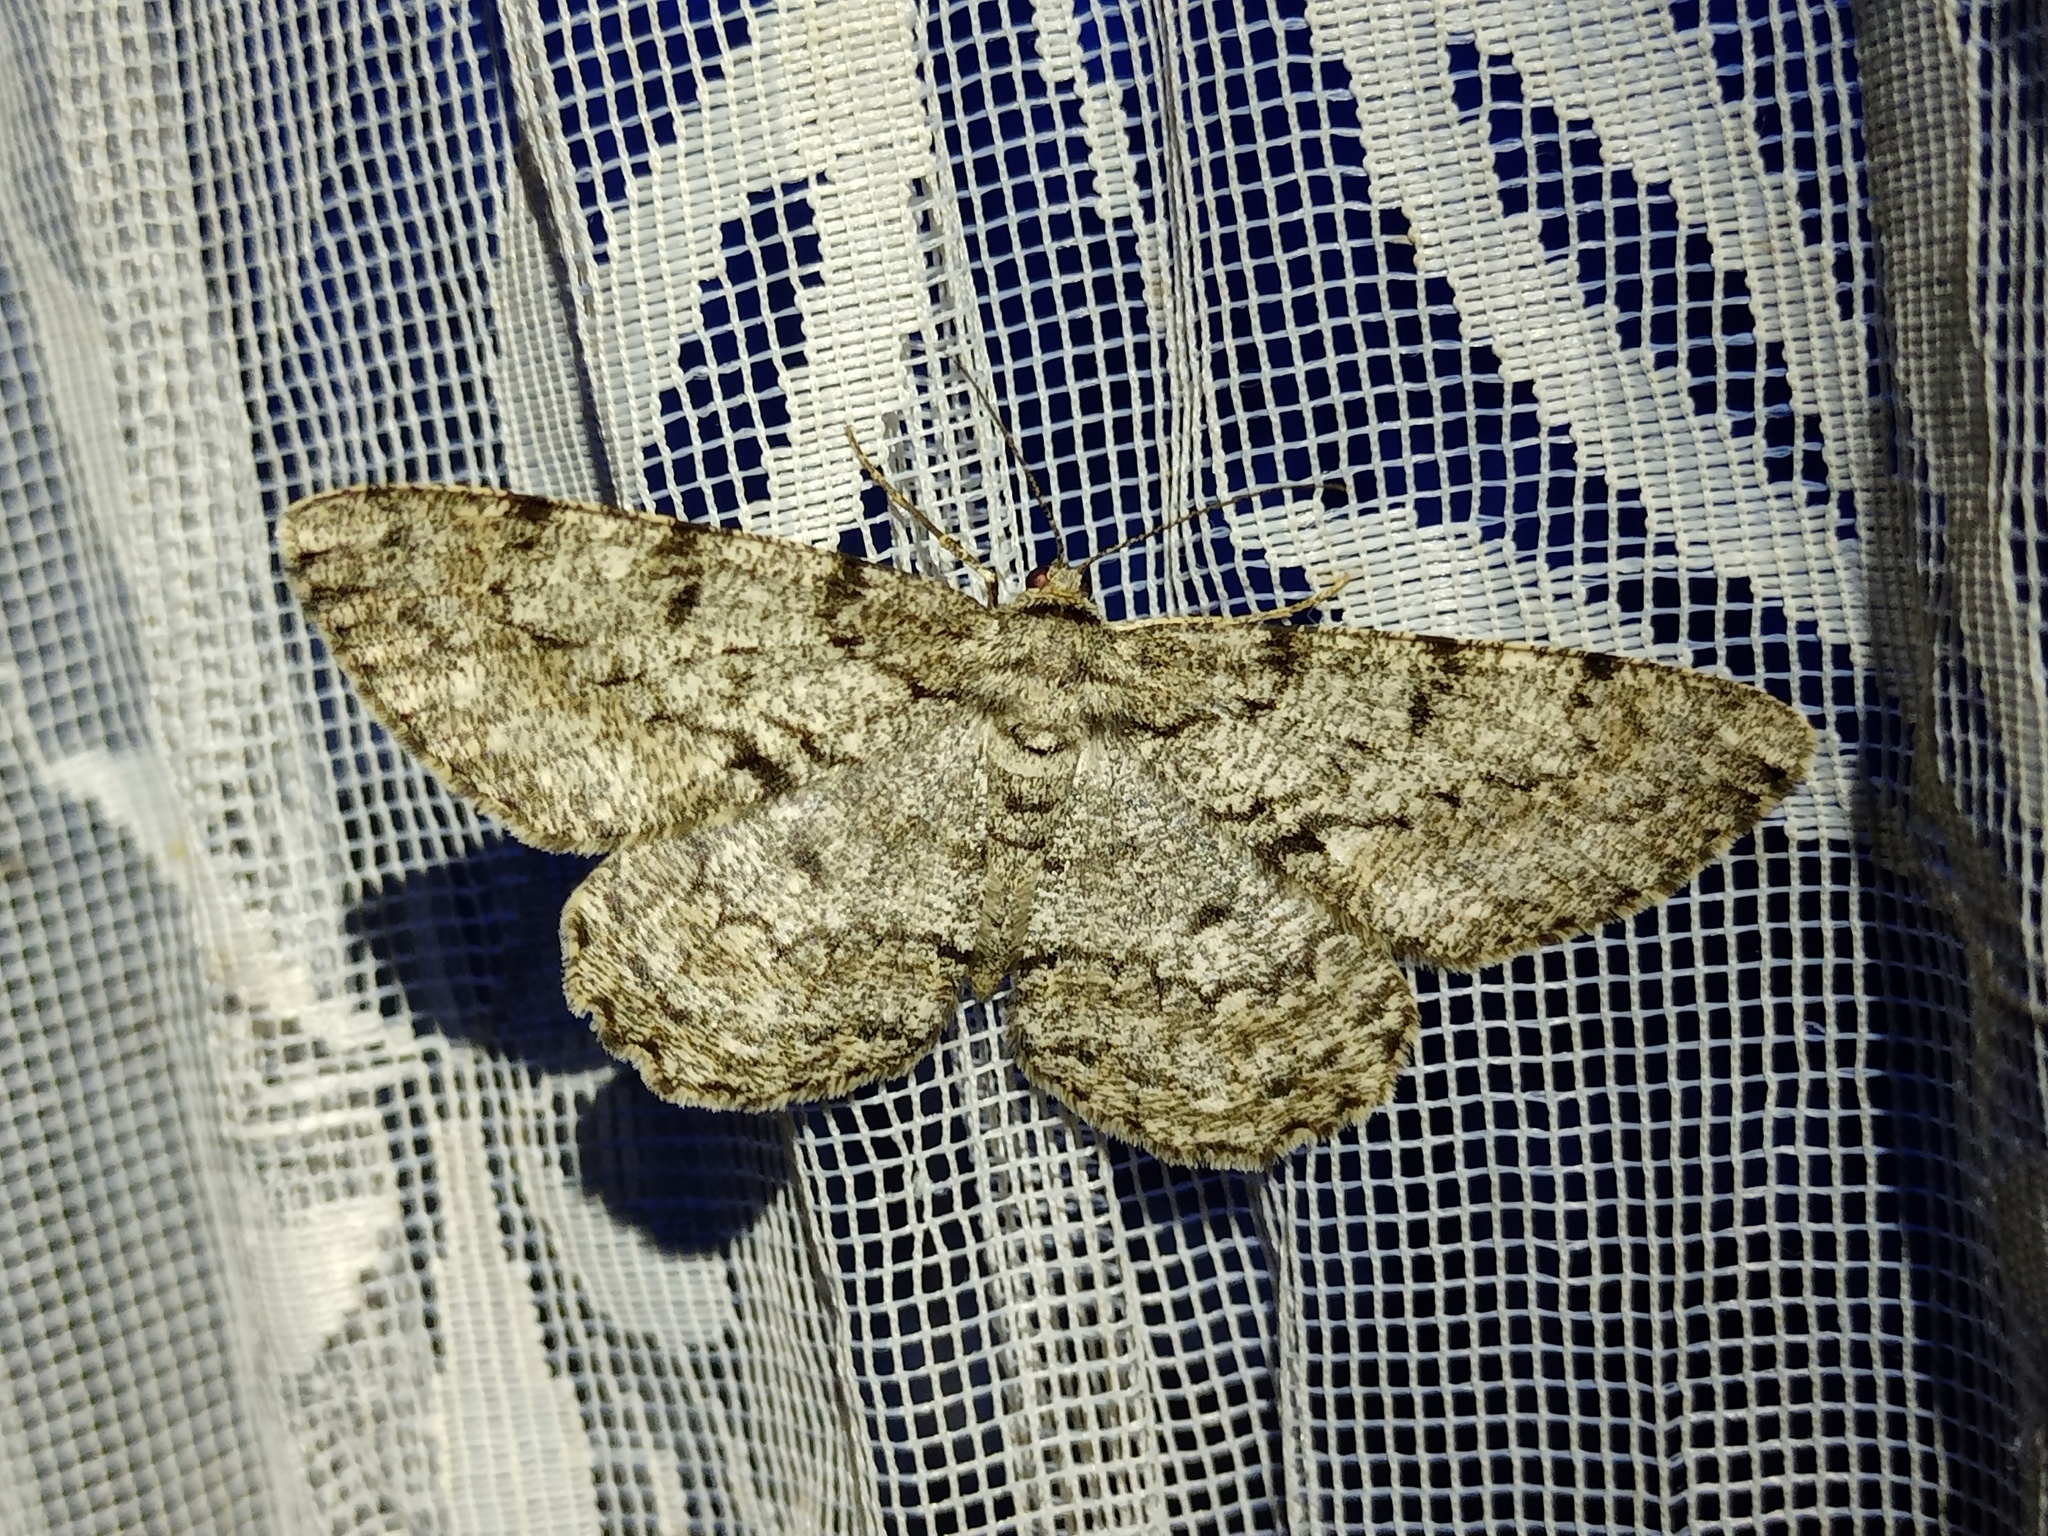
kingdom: Animalia
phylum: Arthropoda
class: Insecta
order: Lepidoptera
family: Geometridae
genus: Hypomecis
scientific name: Hypomecis roboraria
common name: Great oak beauty
